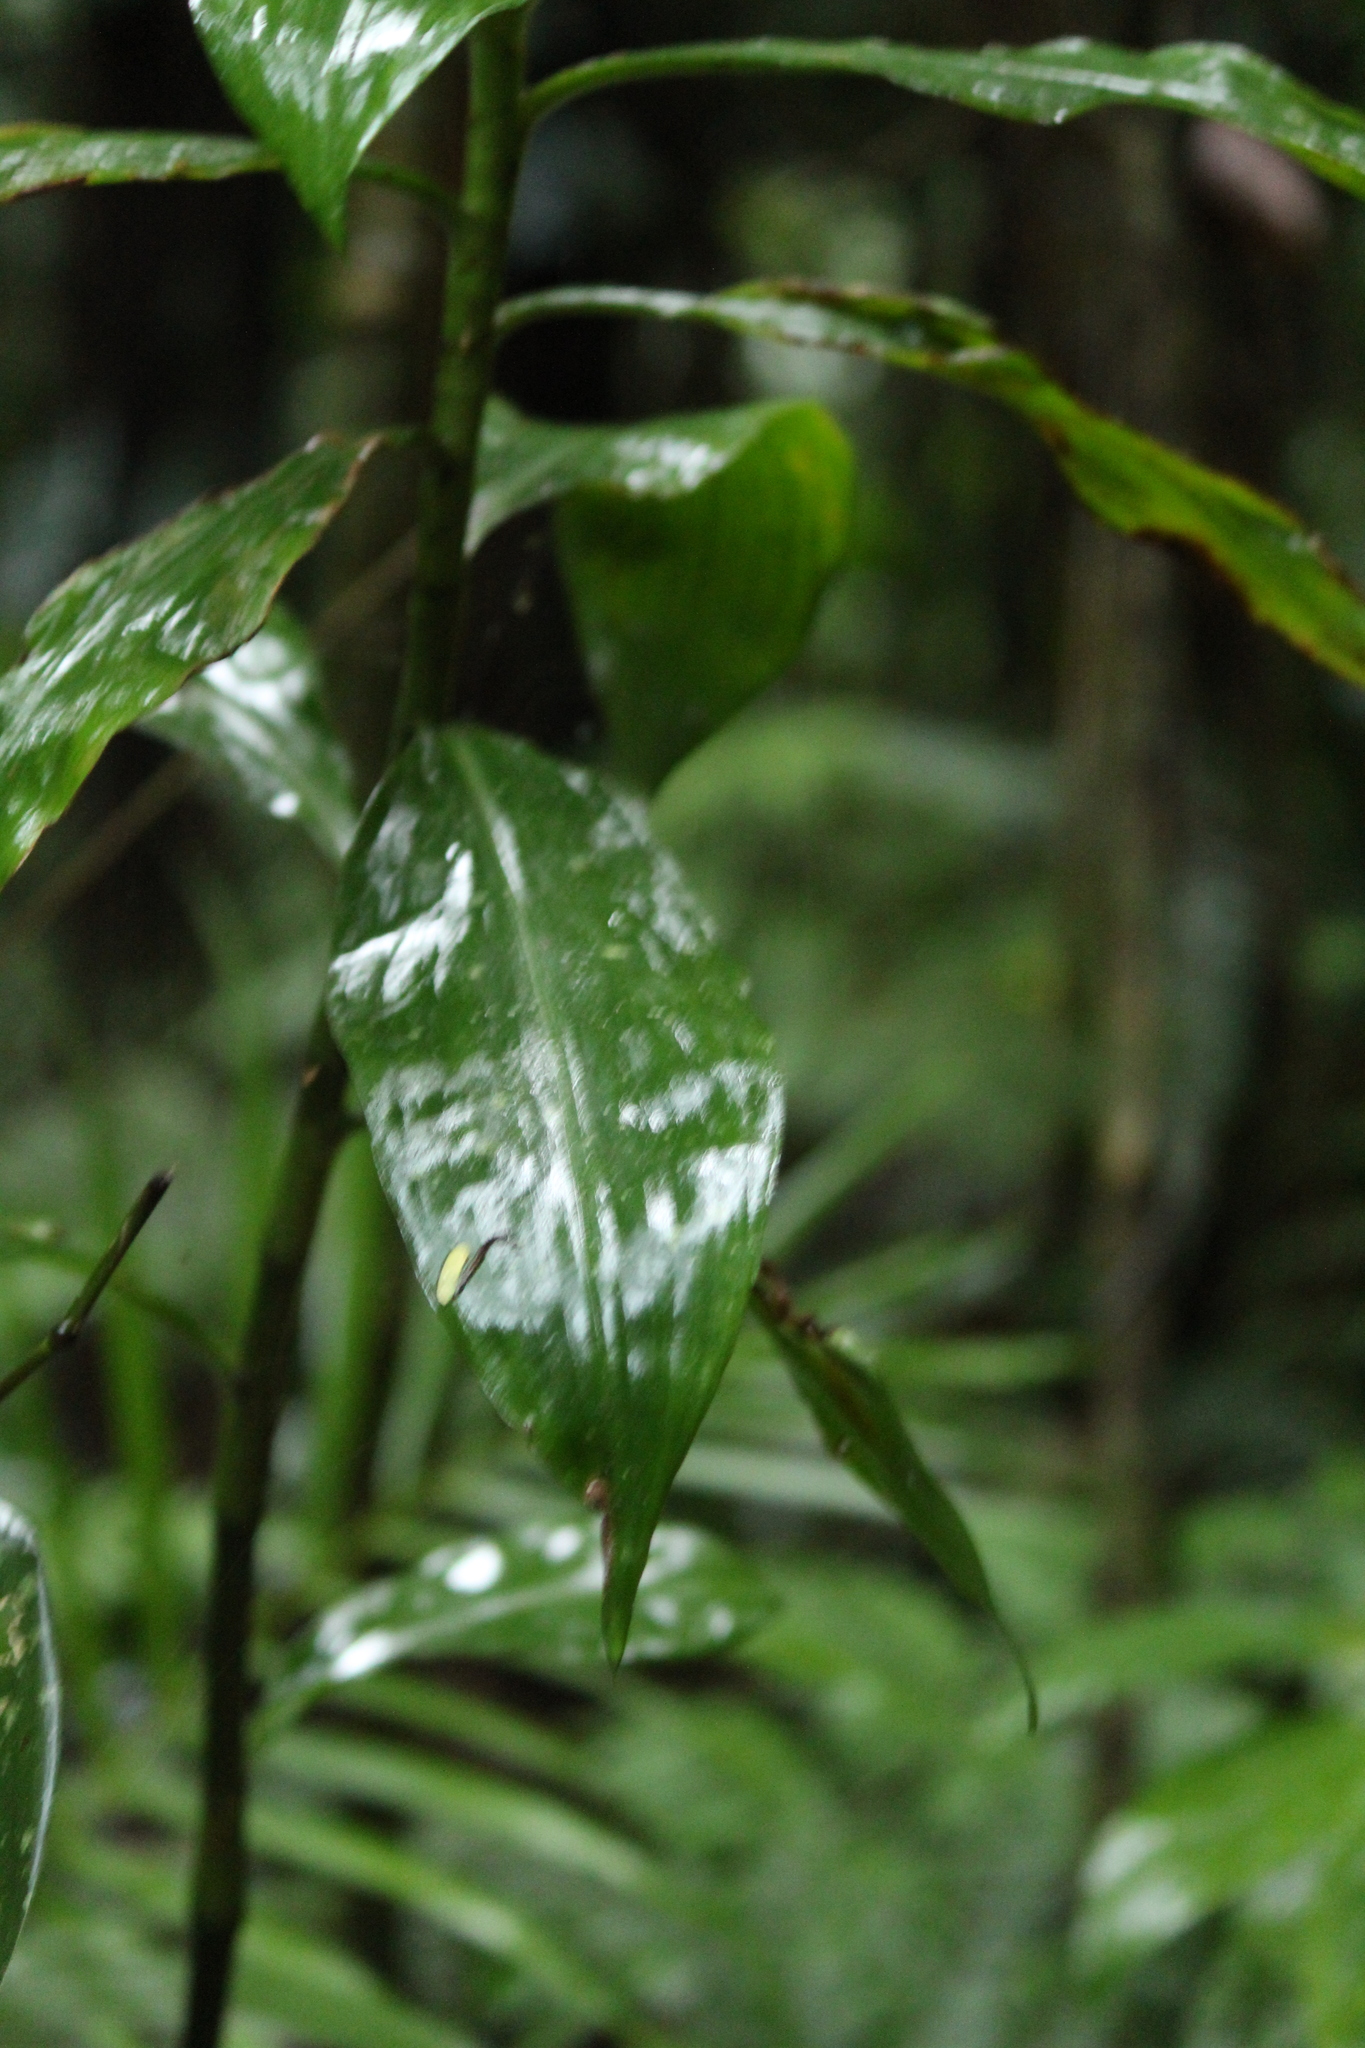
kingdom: Plantae
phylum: Tracheophyta
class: Liliopsida
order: Commelinales
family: Commelinaceae
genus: Dichorisandra
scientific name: Dichorisandra paranaensis
